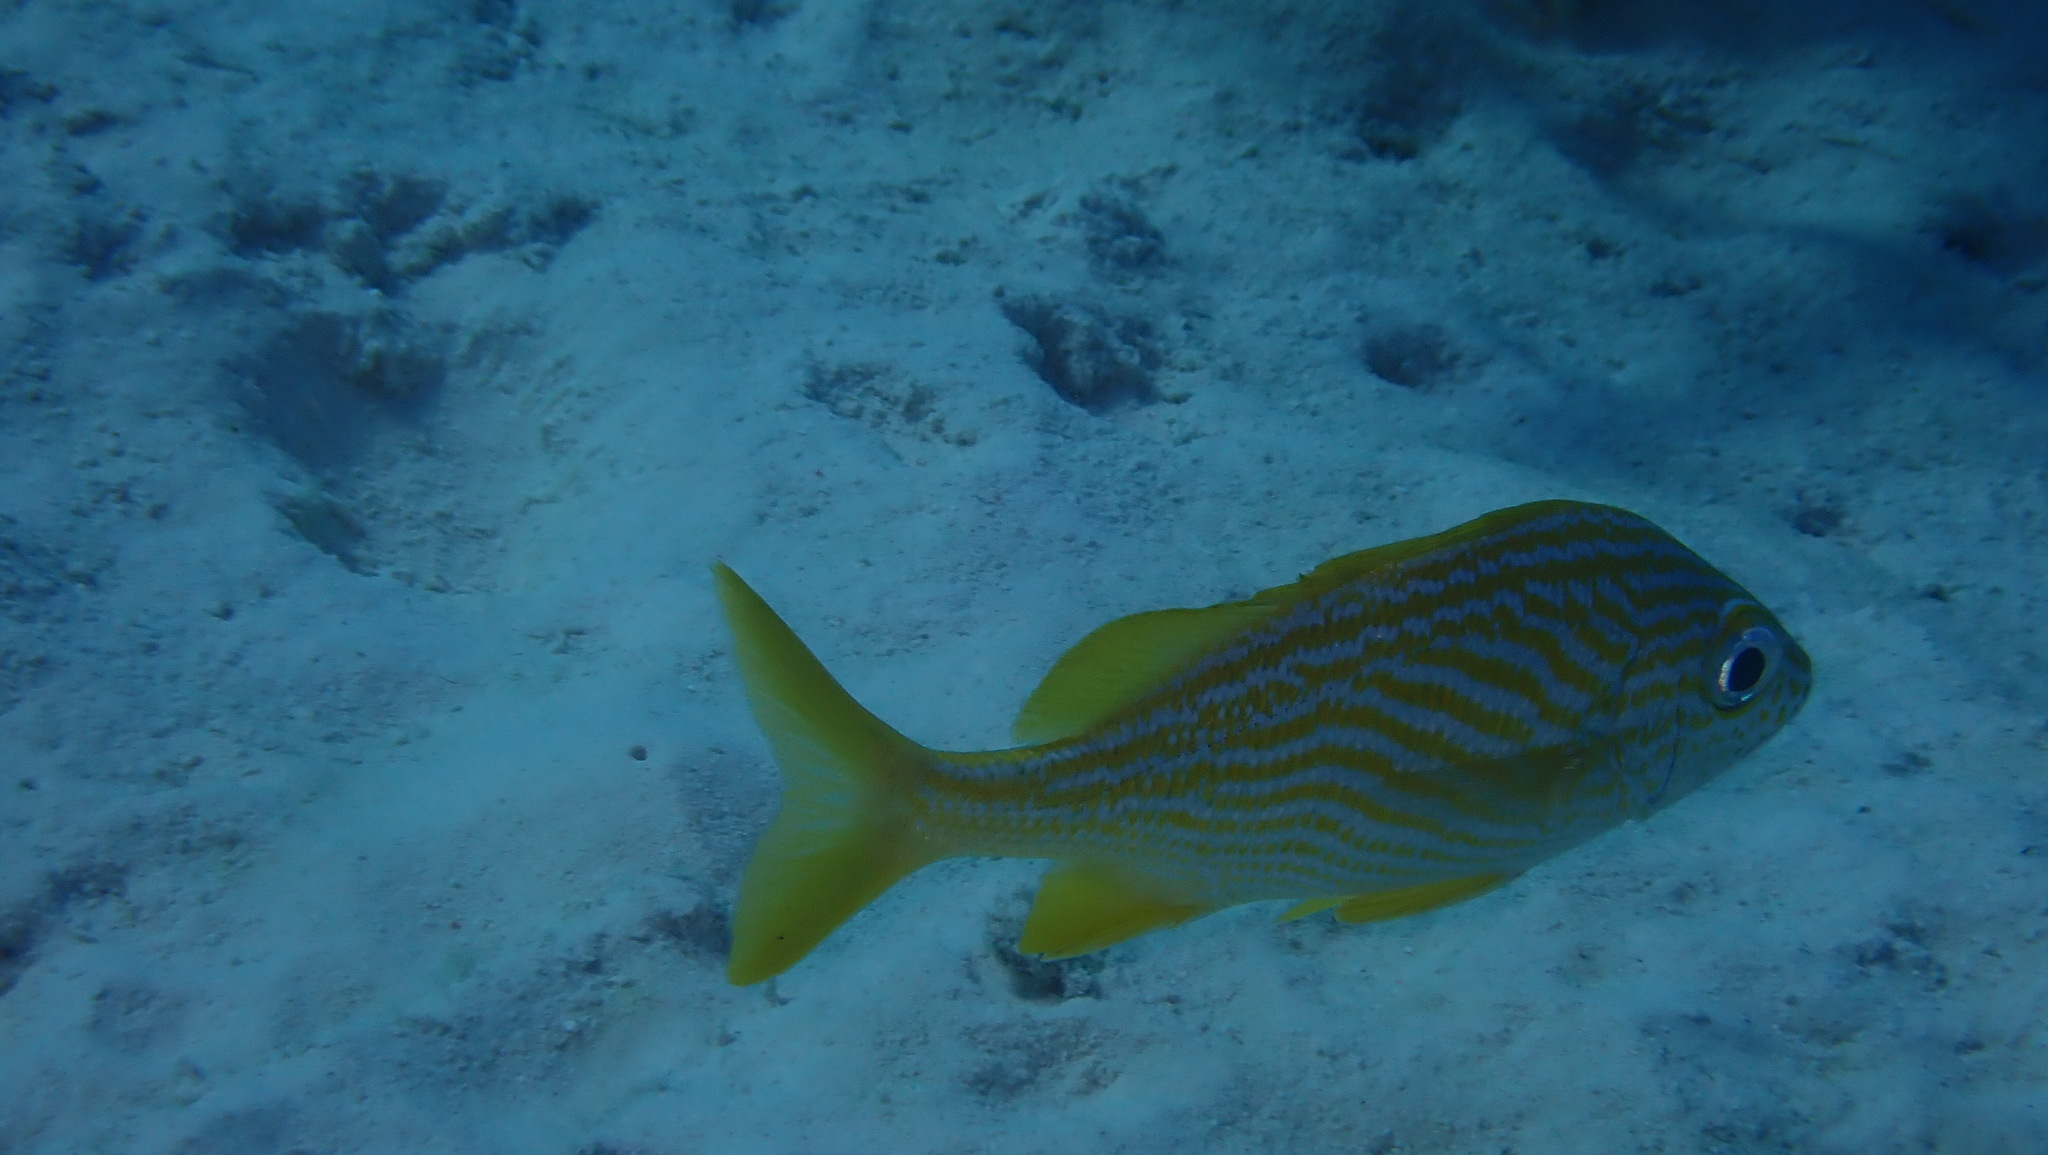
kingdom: Animalia
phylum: Chordata
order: Perciformes
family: Haemulidae
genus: Haemulon
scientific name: Haemulon flavolineatum
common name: French grunt
